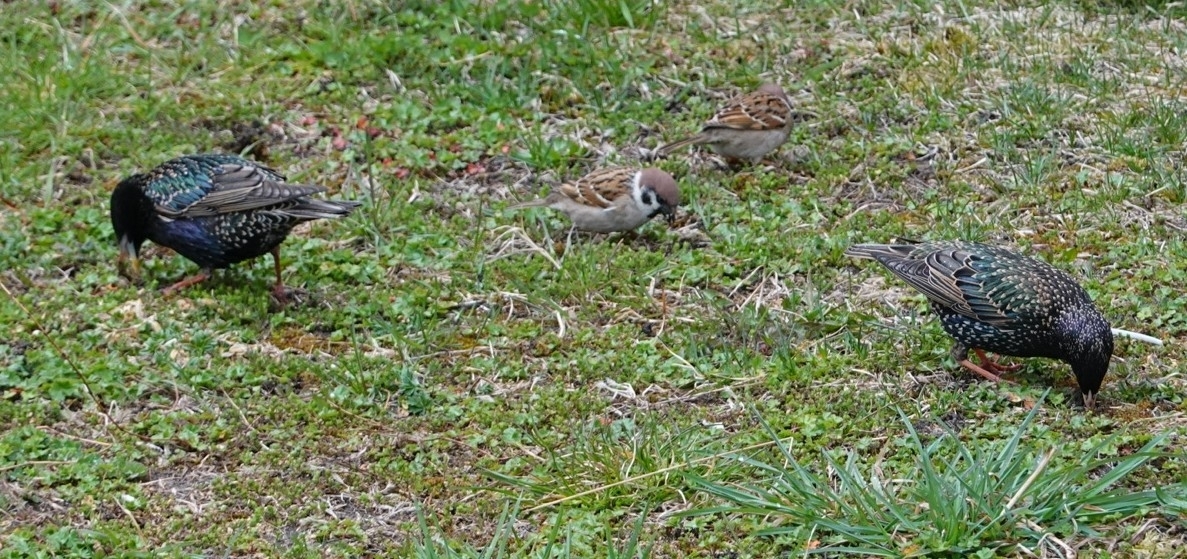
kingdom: Animalia
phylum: Chordata
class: Aves
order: Passeriformes
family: Sturnidae
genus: Sturnus
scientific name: Sturnus vulgaris
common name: Common starling
